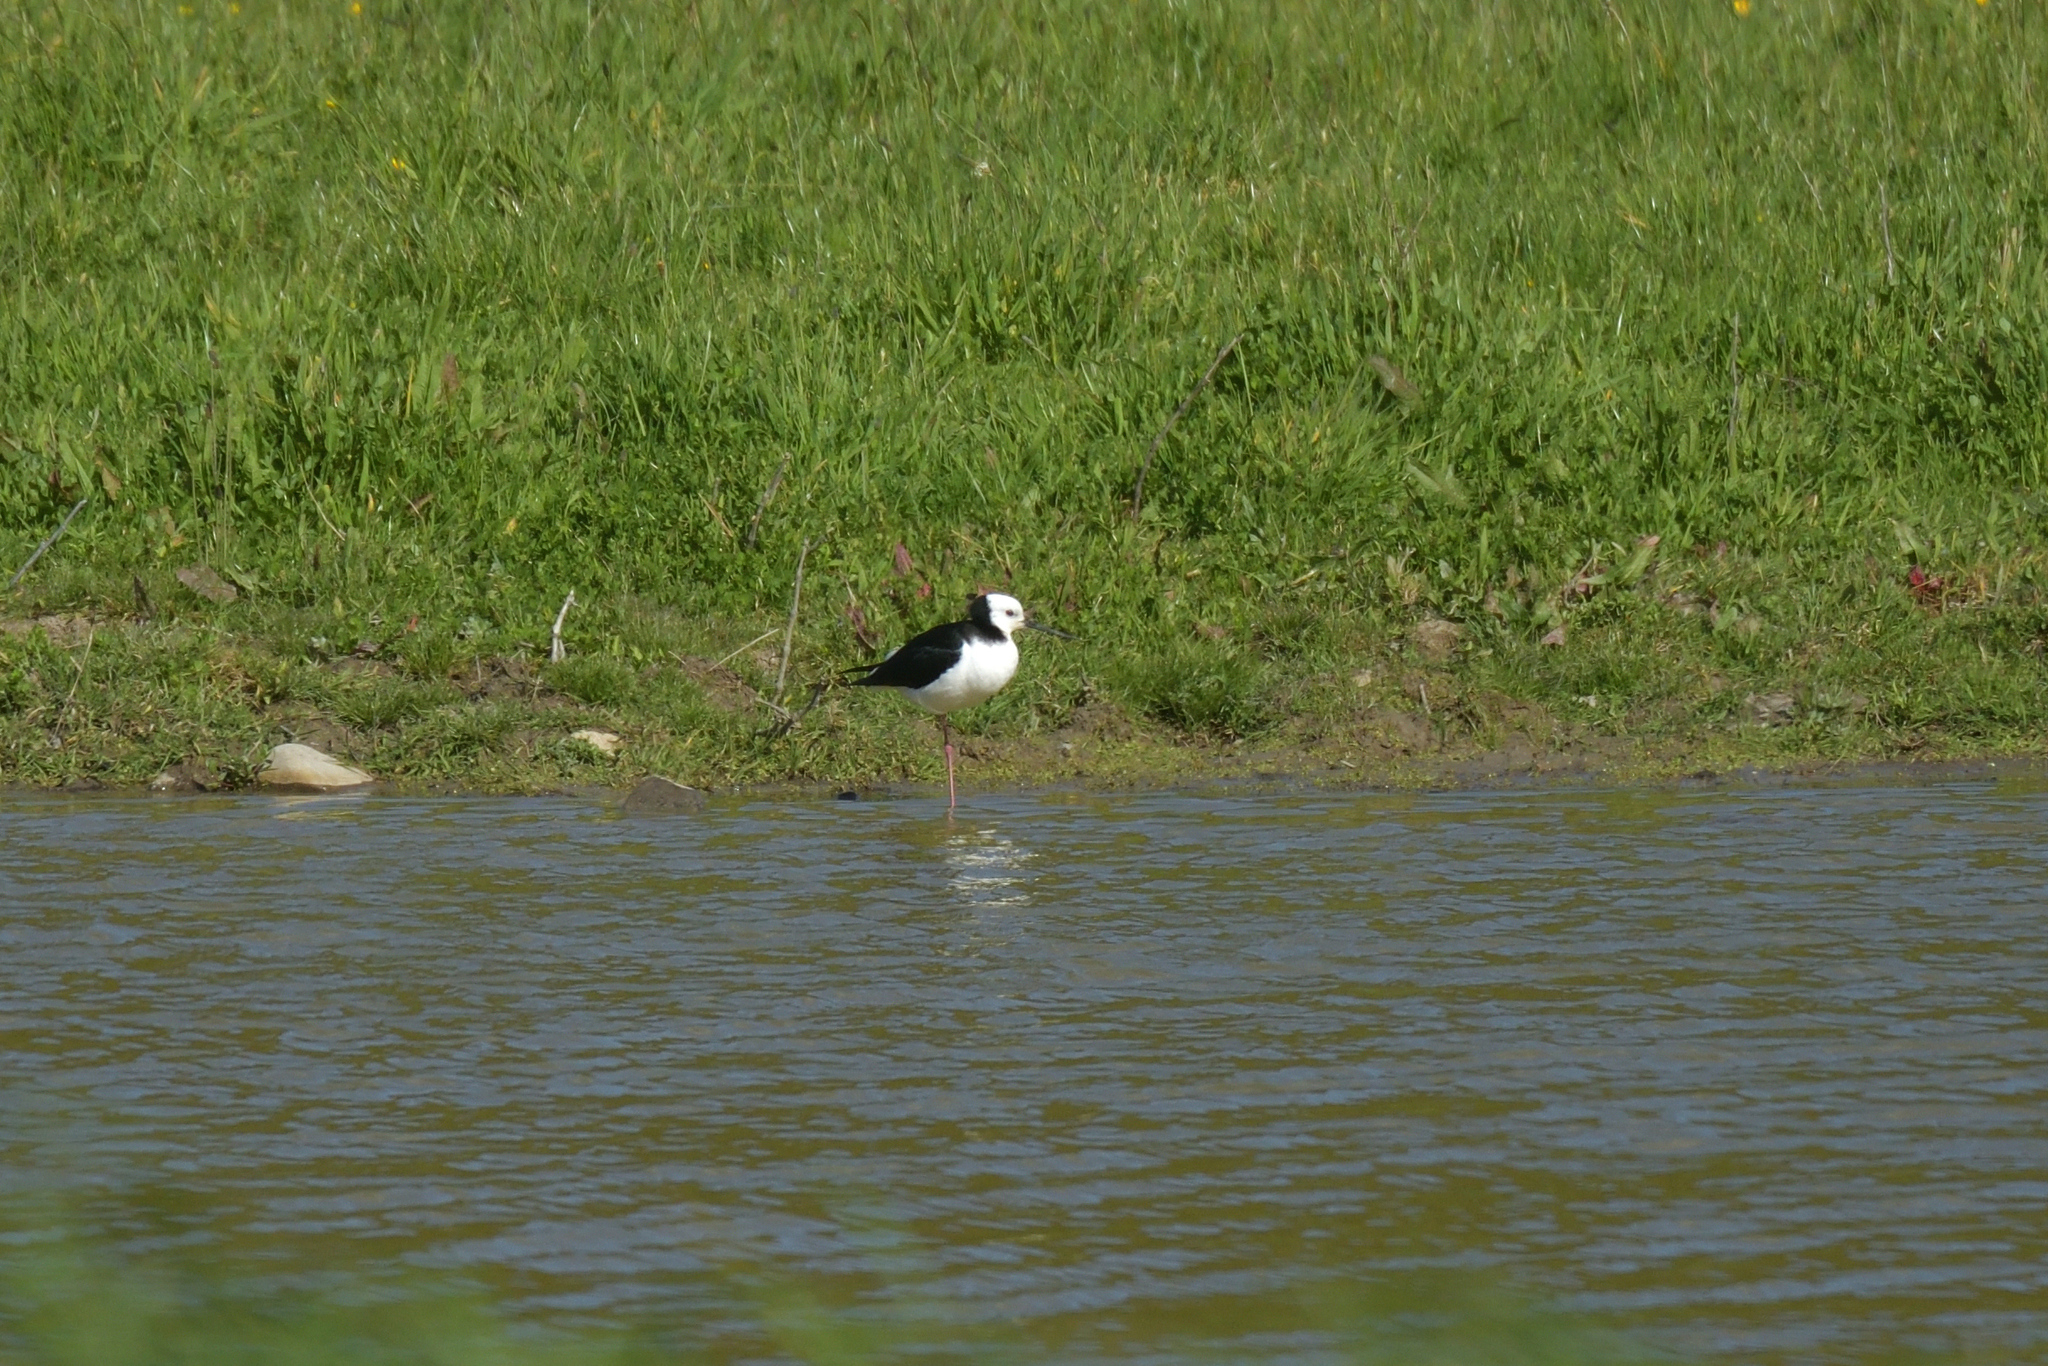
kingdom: Animalia
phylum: Chordata
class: Aves
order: Charadriiformes
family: Recurvirostridae
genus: Himantopus
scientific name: Himantopus leucocephalus
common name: White-headed stilt
